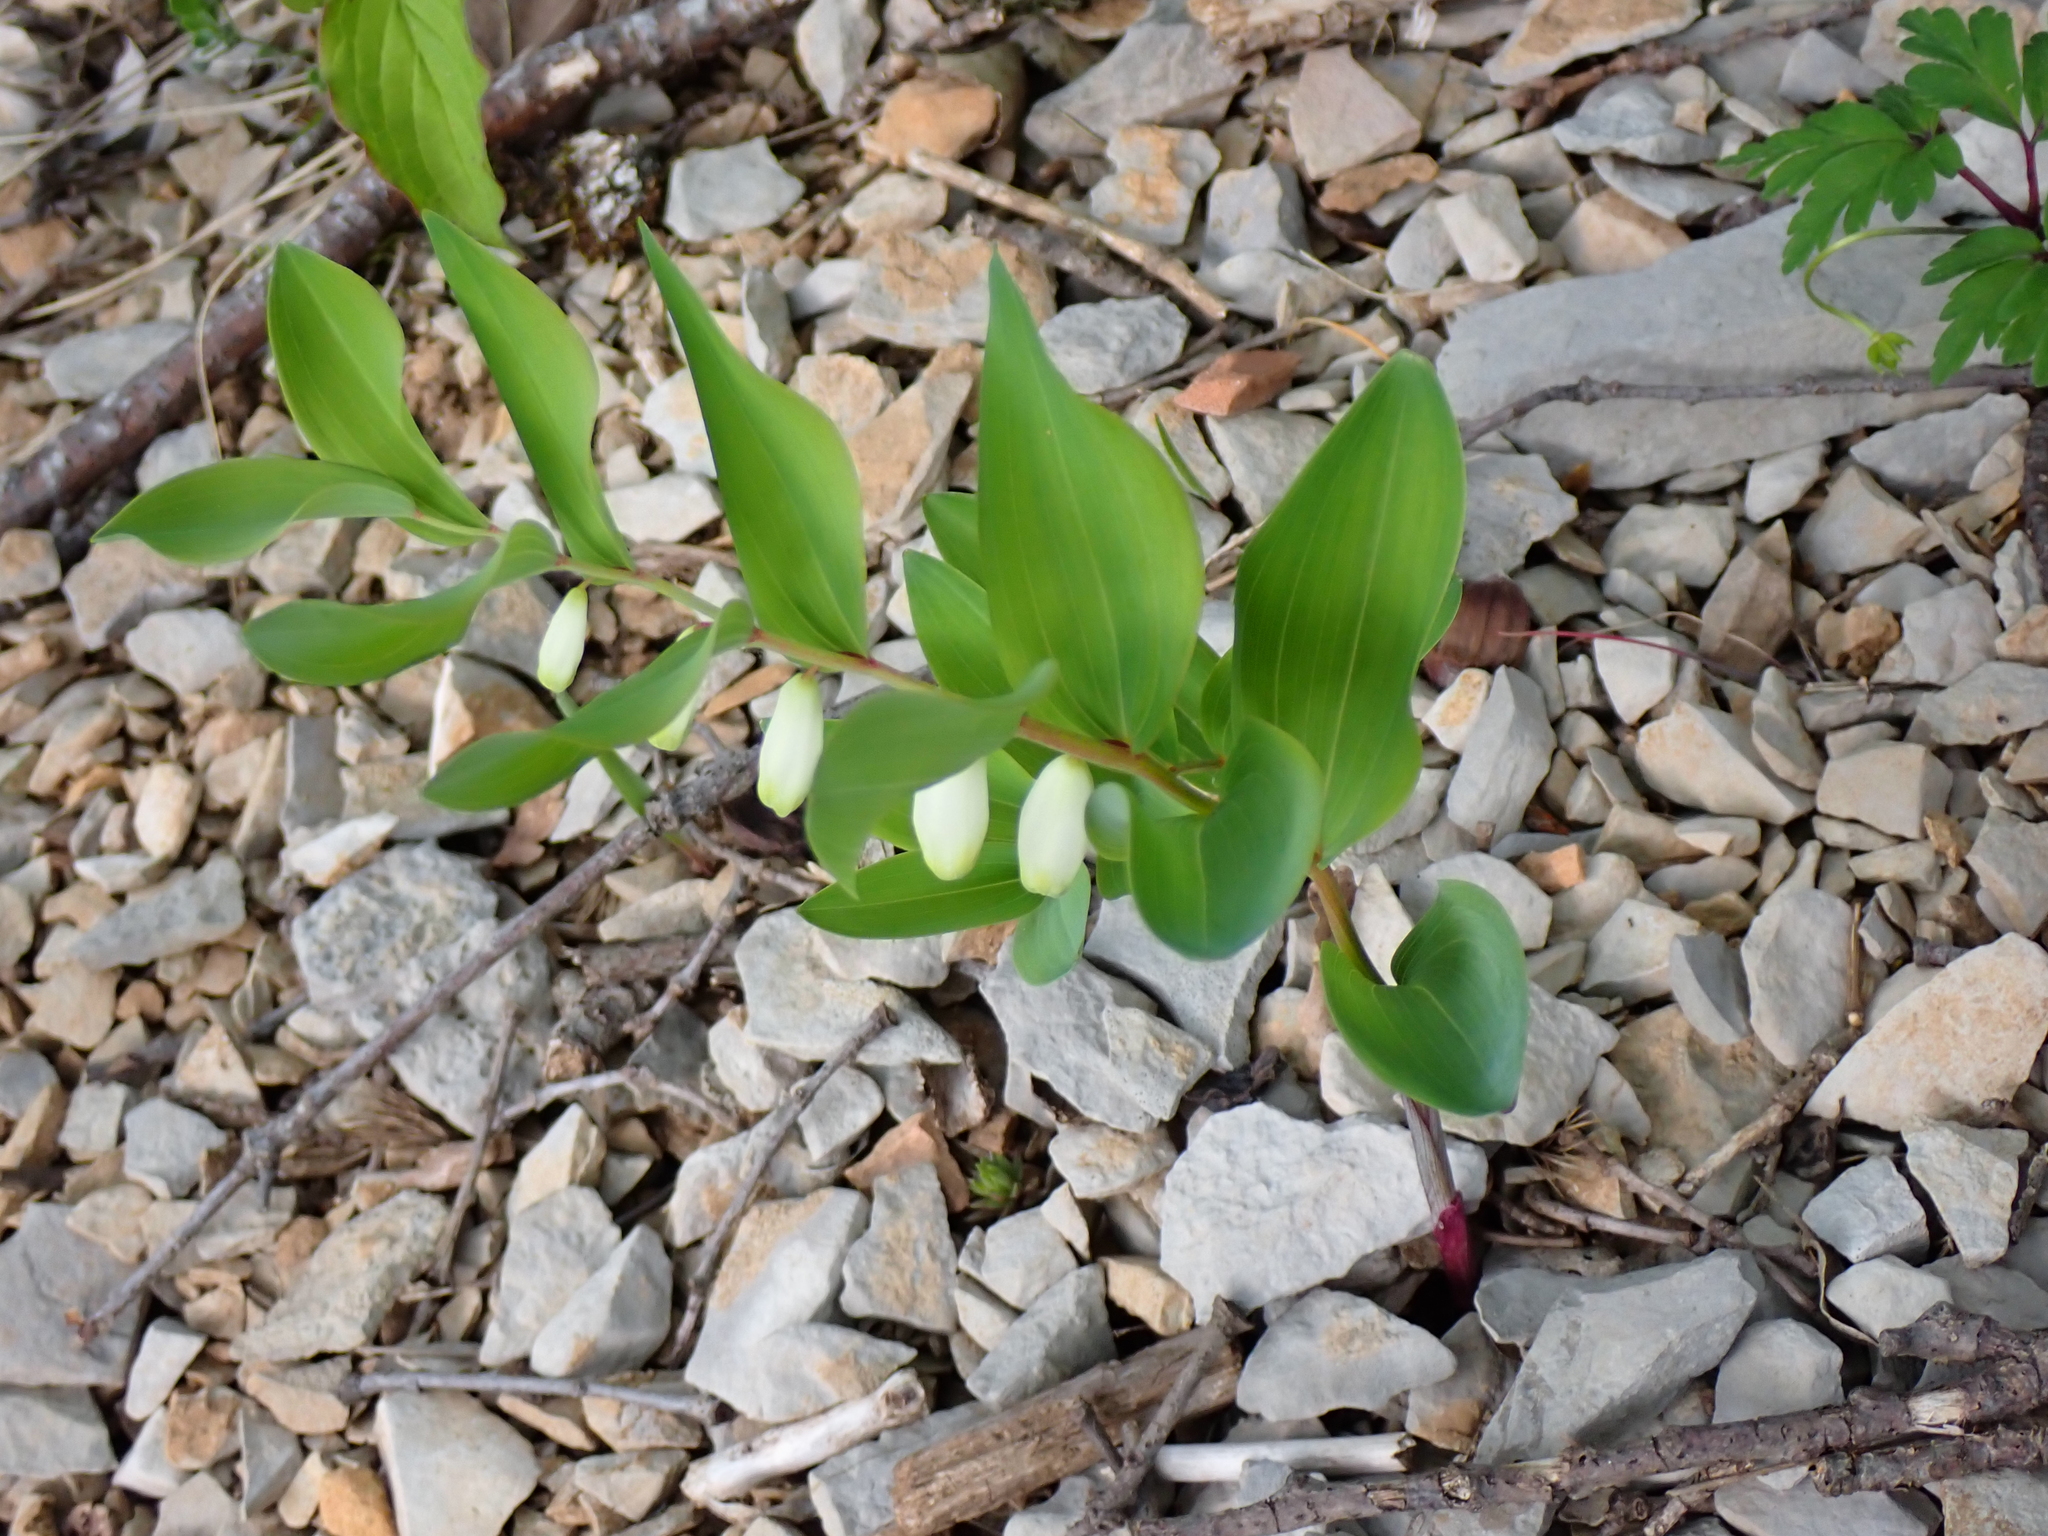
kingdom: Plantae
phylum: Tracheophyta
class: Liliopsida
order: Asparagales
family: Asparagaceae
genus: Polygonatum
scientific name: Polygonatum odoratum
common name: Angular solomon's-seal
